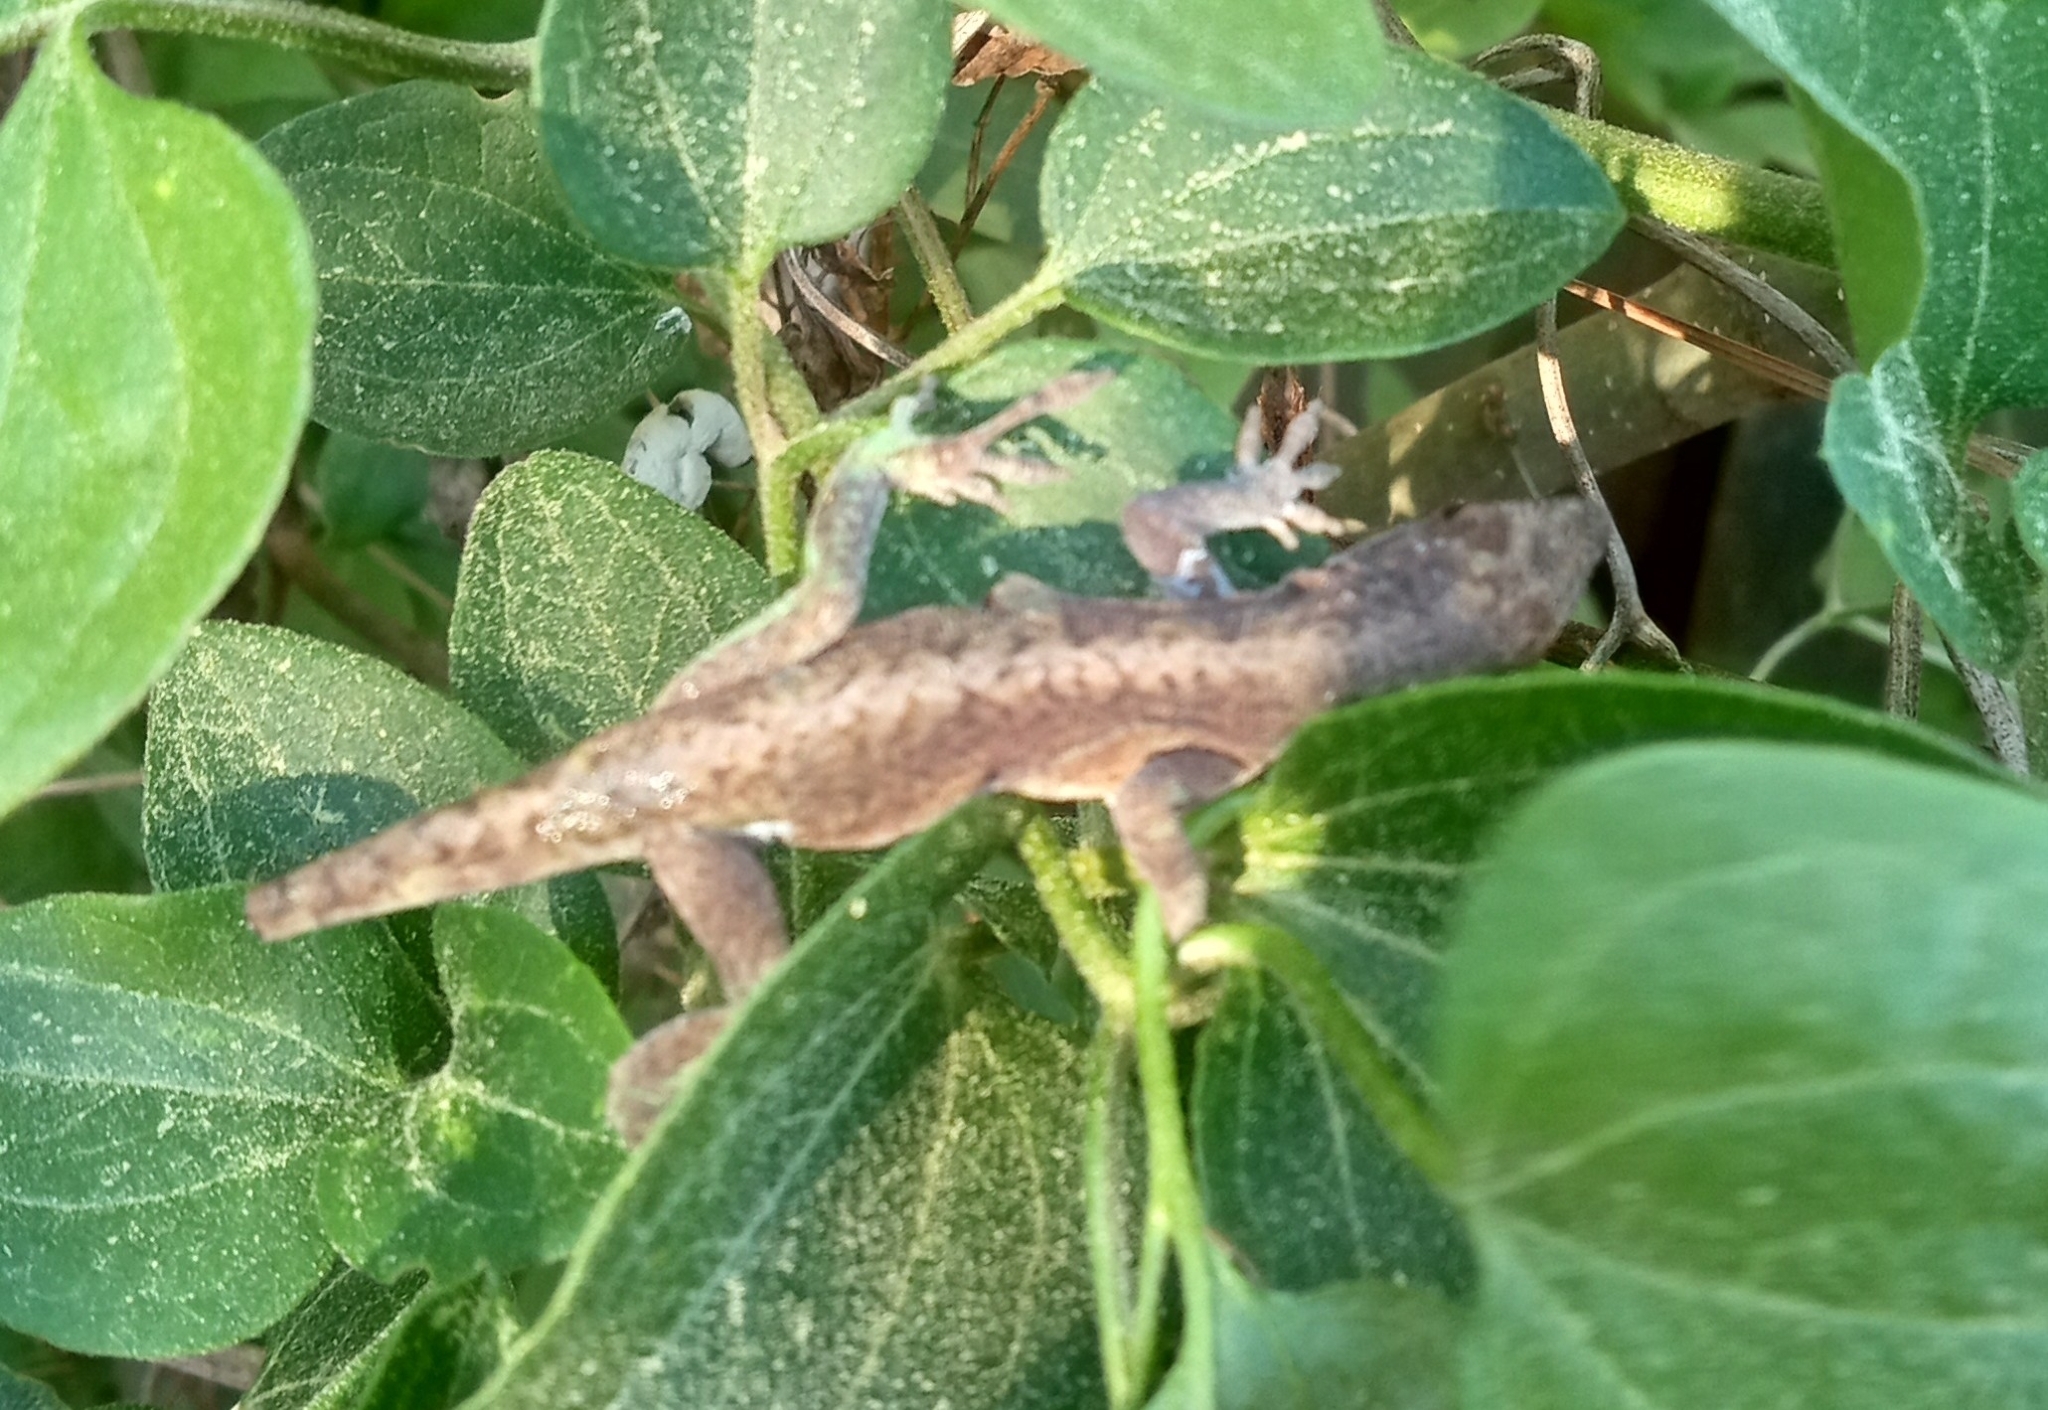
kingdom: Animalia
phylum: Chordata
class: Squamata
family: Dactyloidae
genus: Anolis
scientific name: Anolis carolinensis
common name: Green anole
